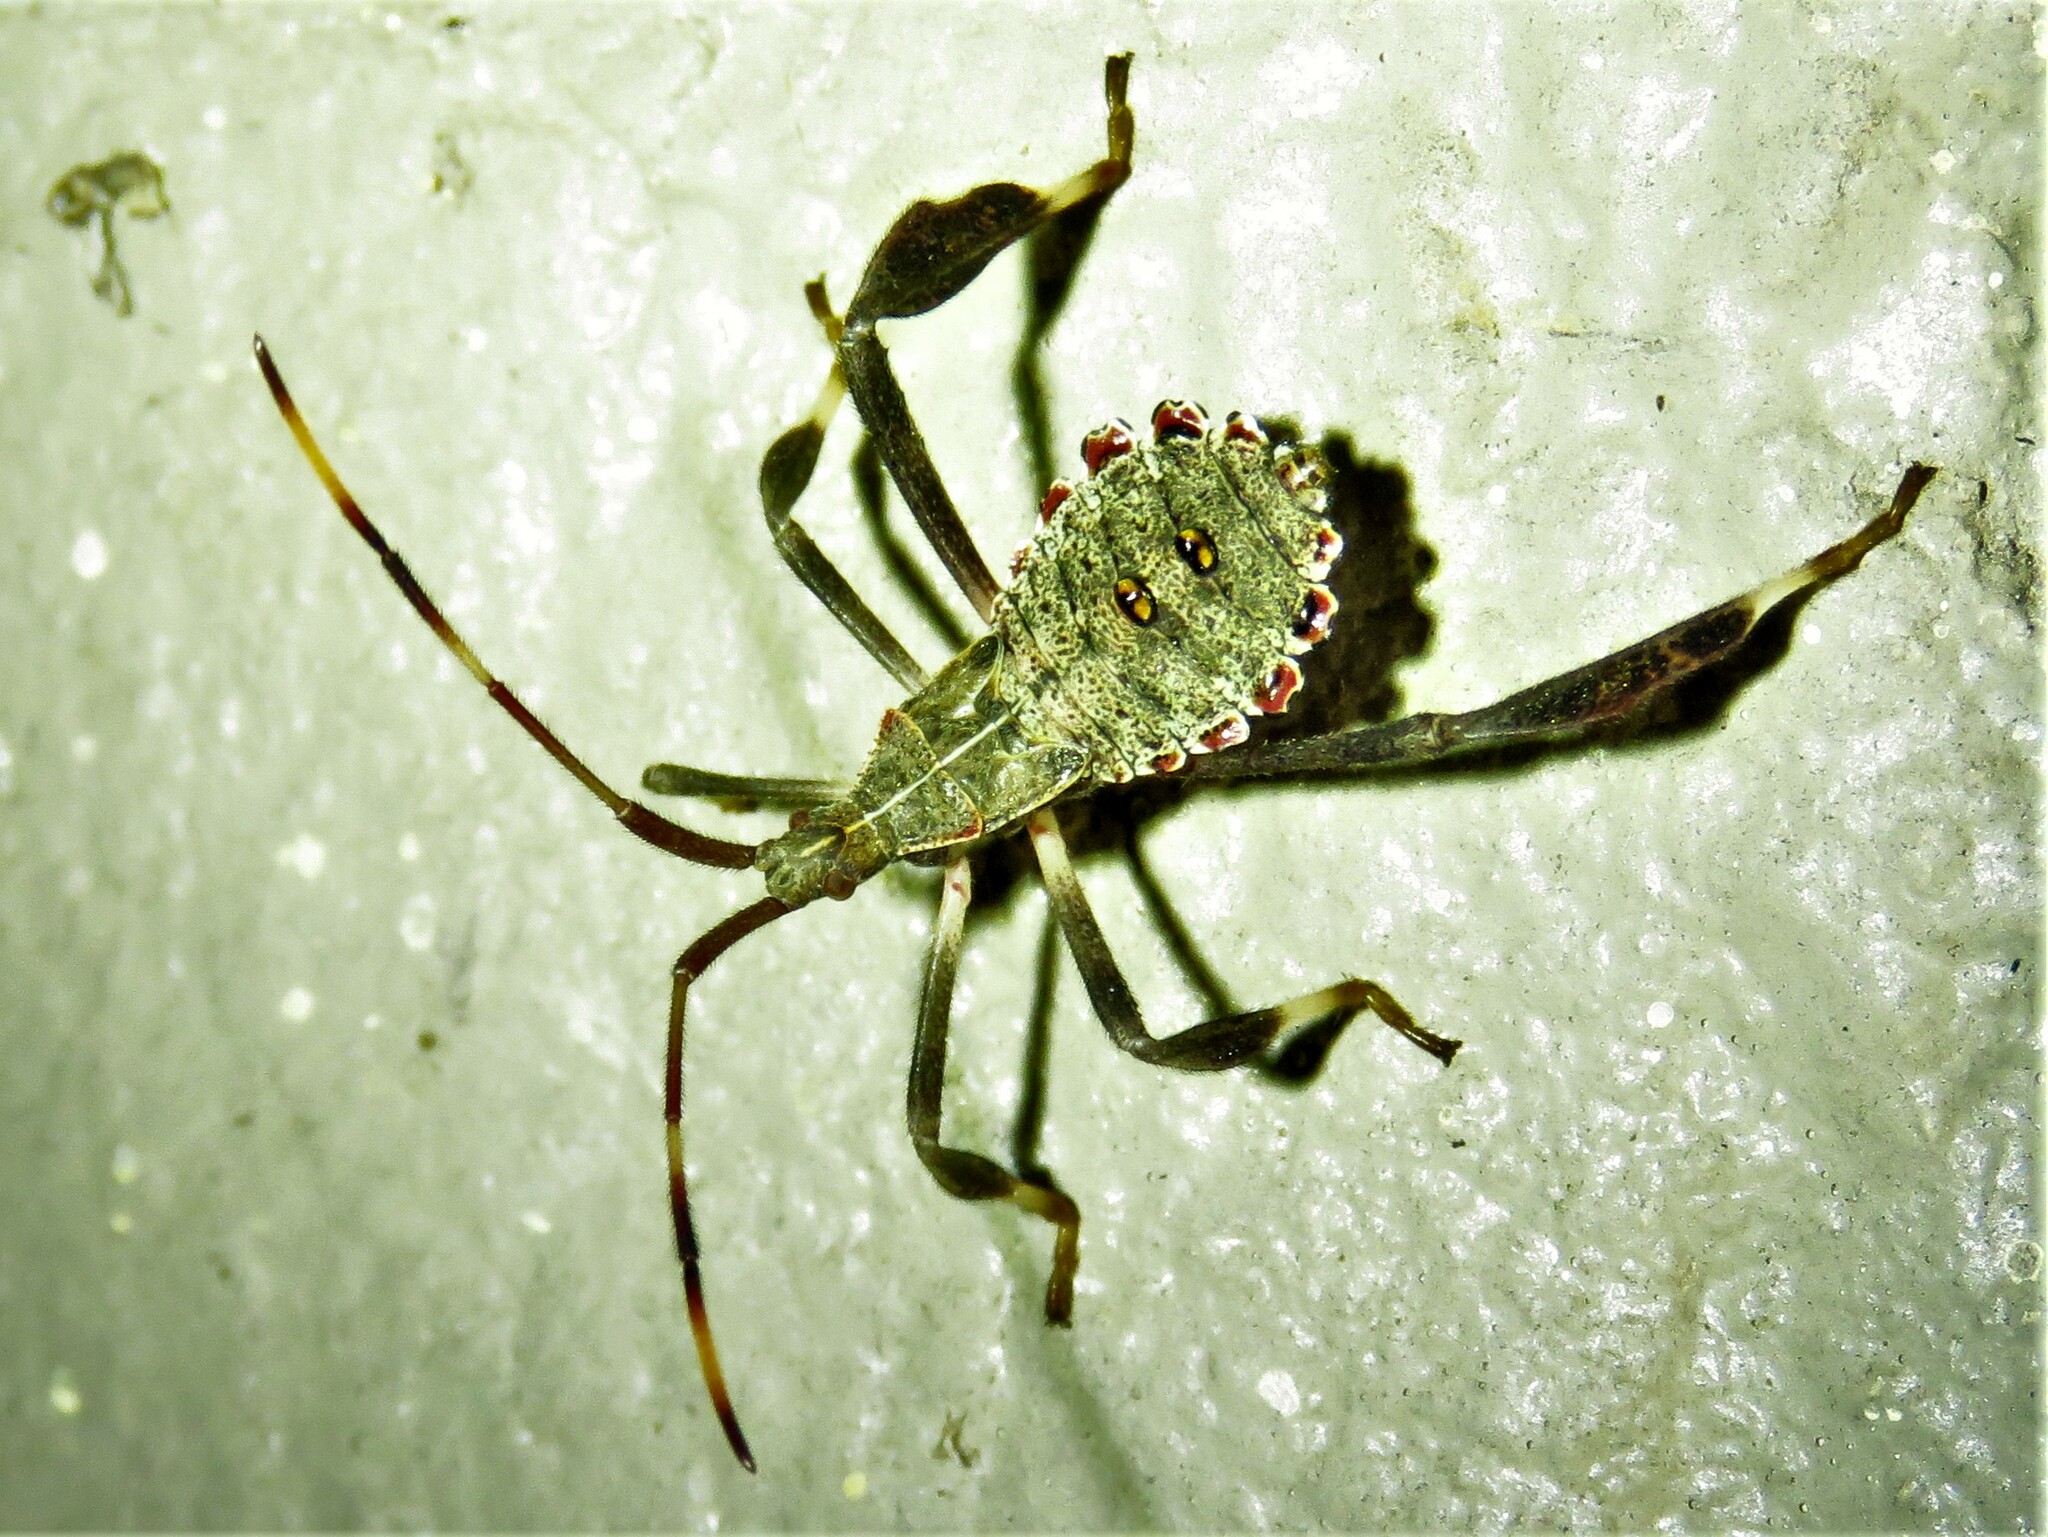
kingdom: Animalia
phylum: Arthropoda
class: Insecta
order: Hemiptera
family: Coreidae
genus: Acanthocephala
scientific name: Acanthocephala terminalis
